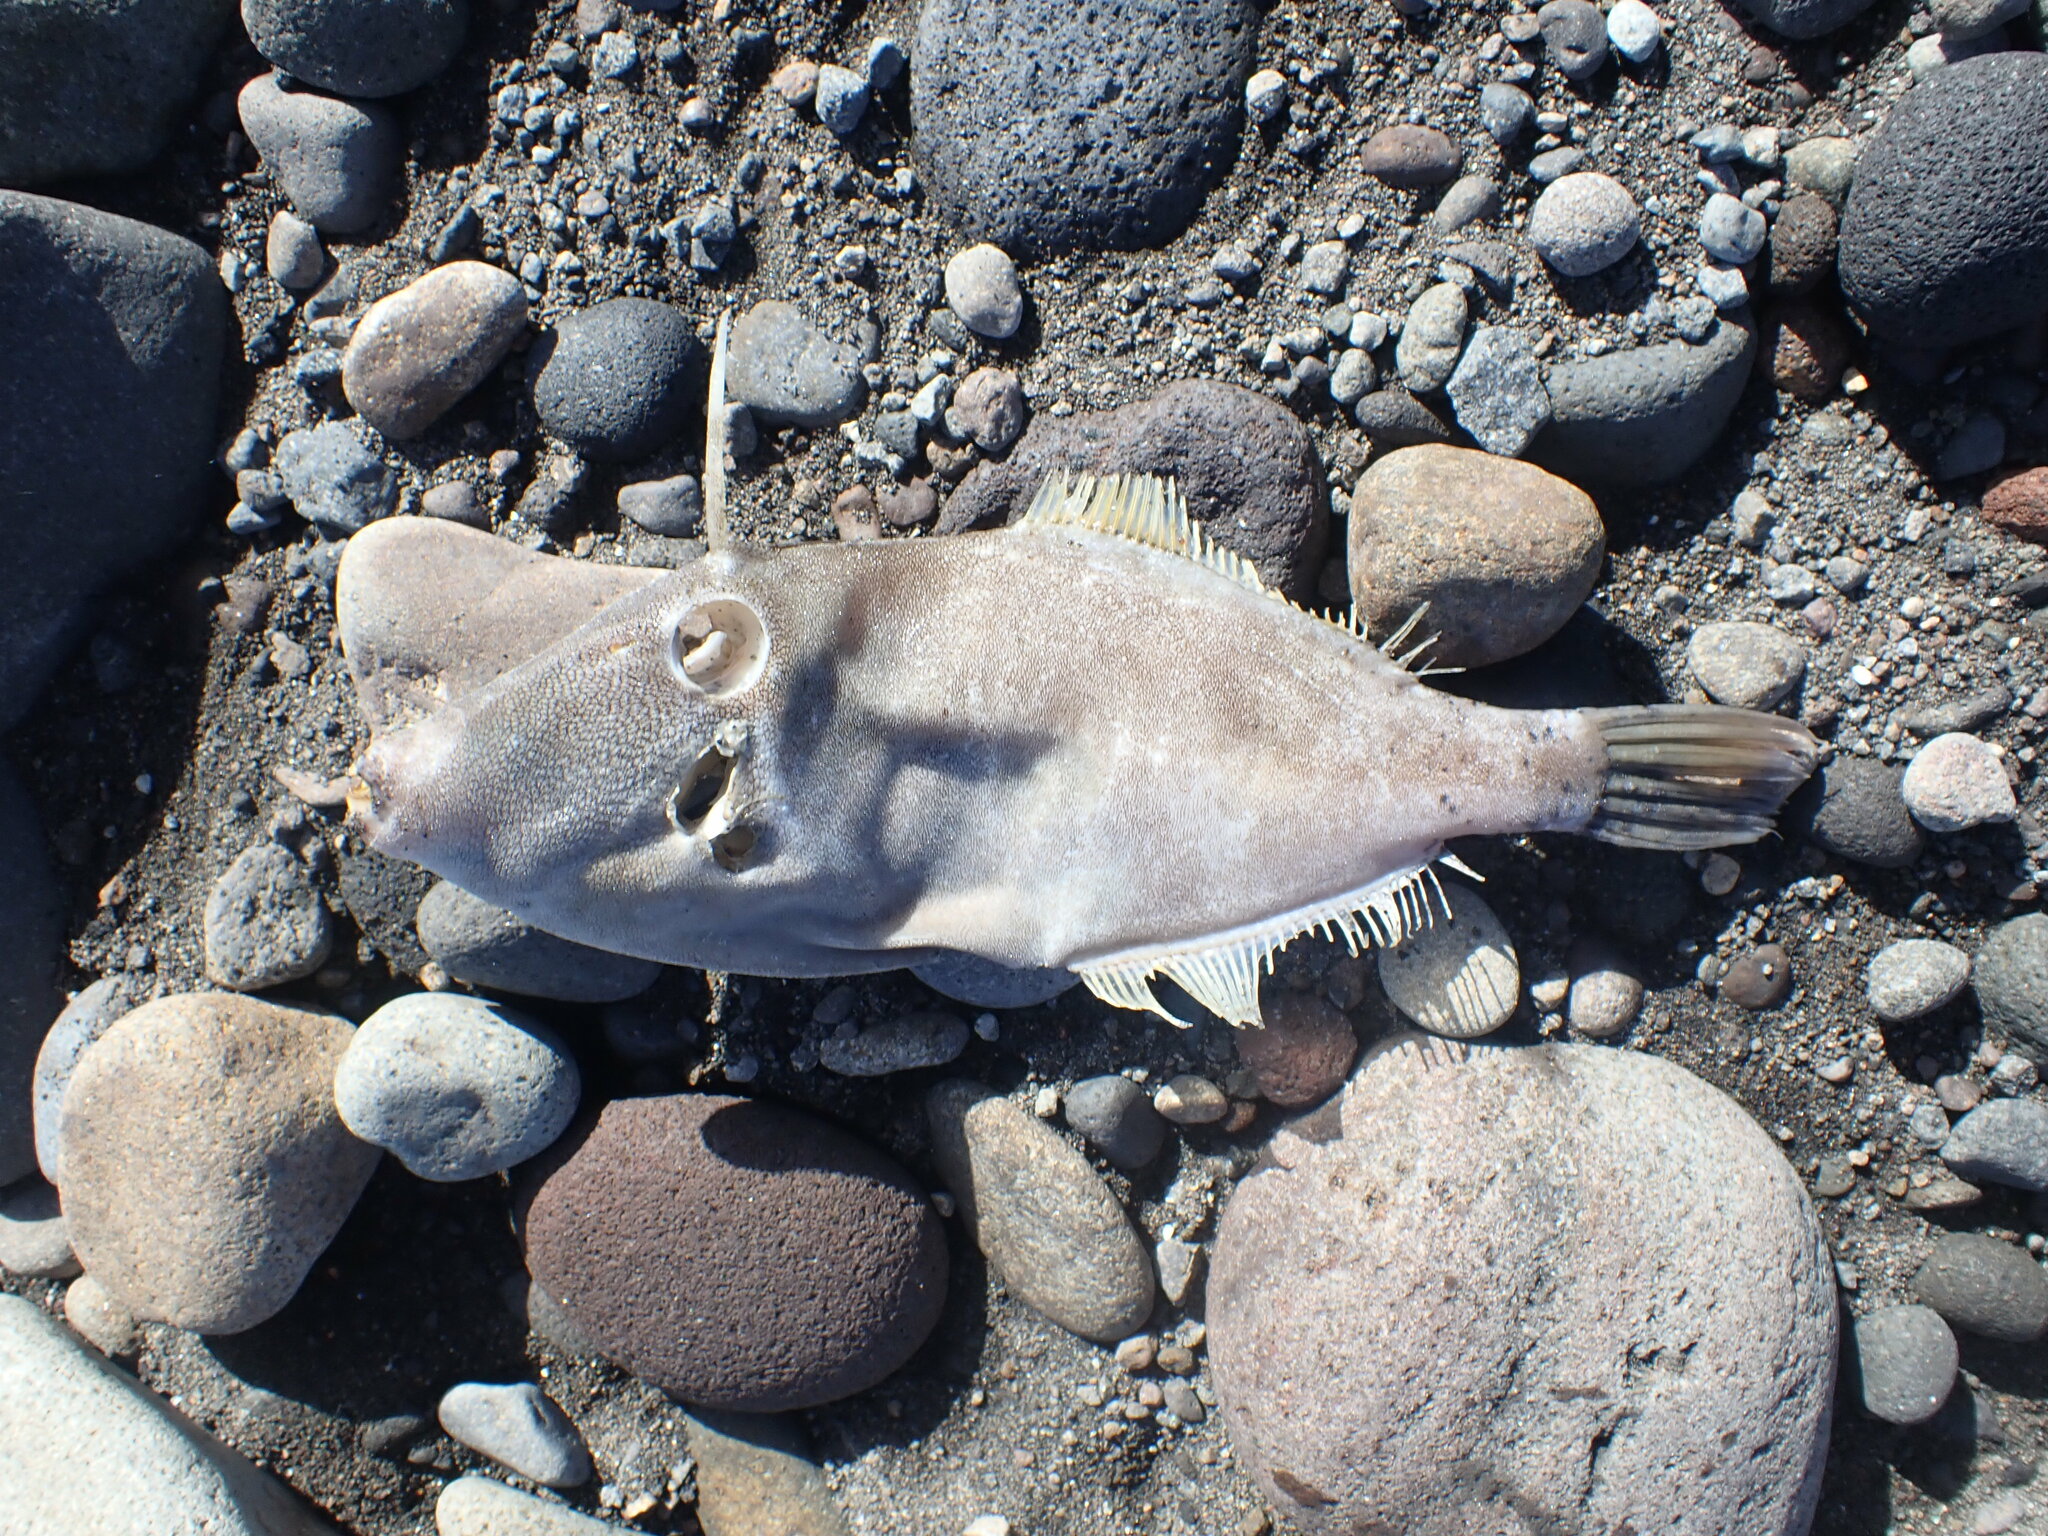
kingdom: Animalia
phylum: Chordata
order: Tetraodontiformes
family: Monacanthidae
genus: Meuschenia
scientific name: Meuschenia scaber
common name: Cosmopolitan leatherjacket
